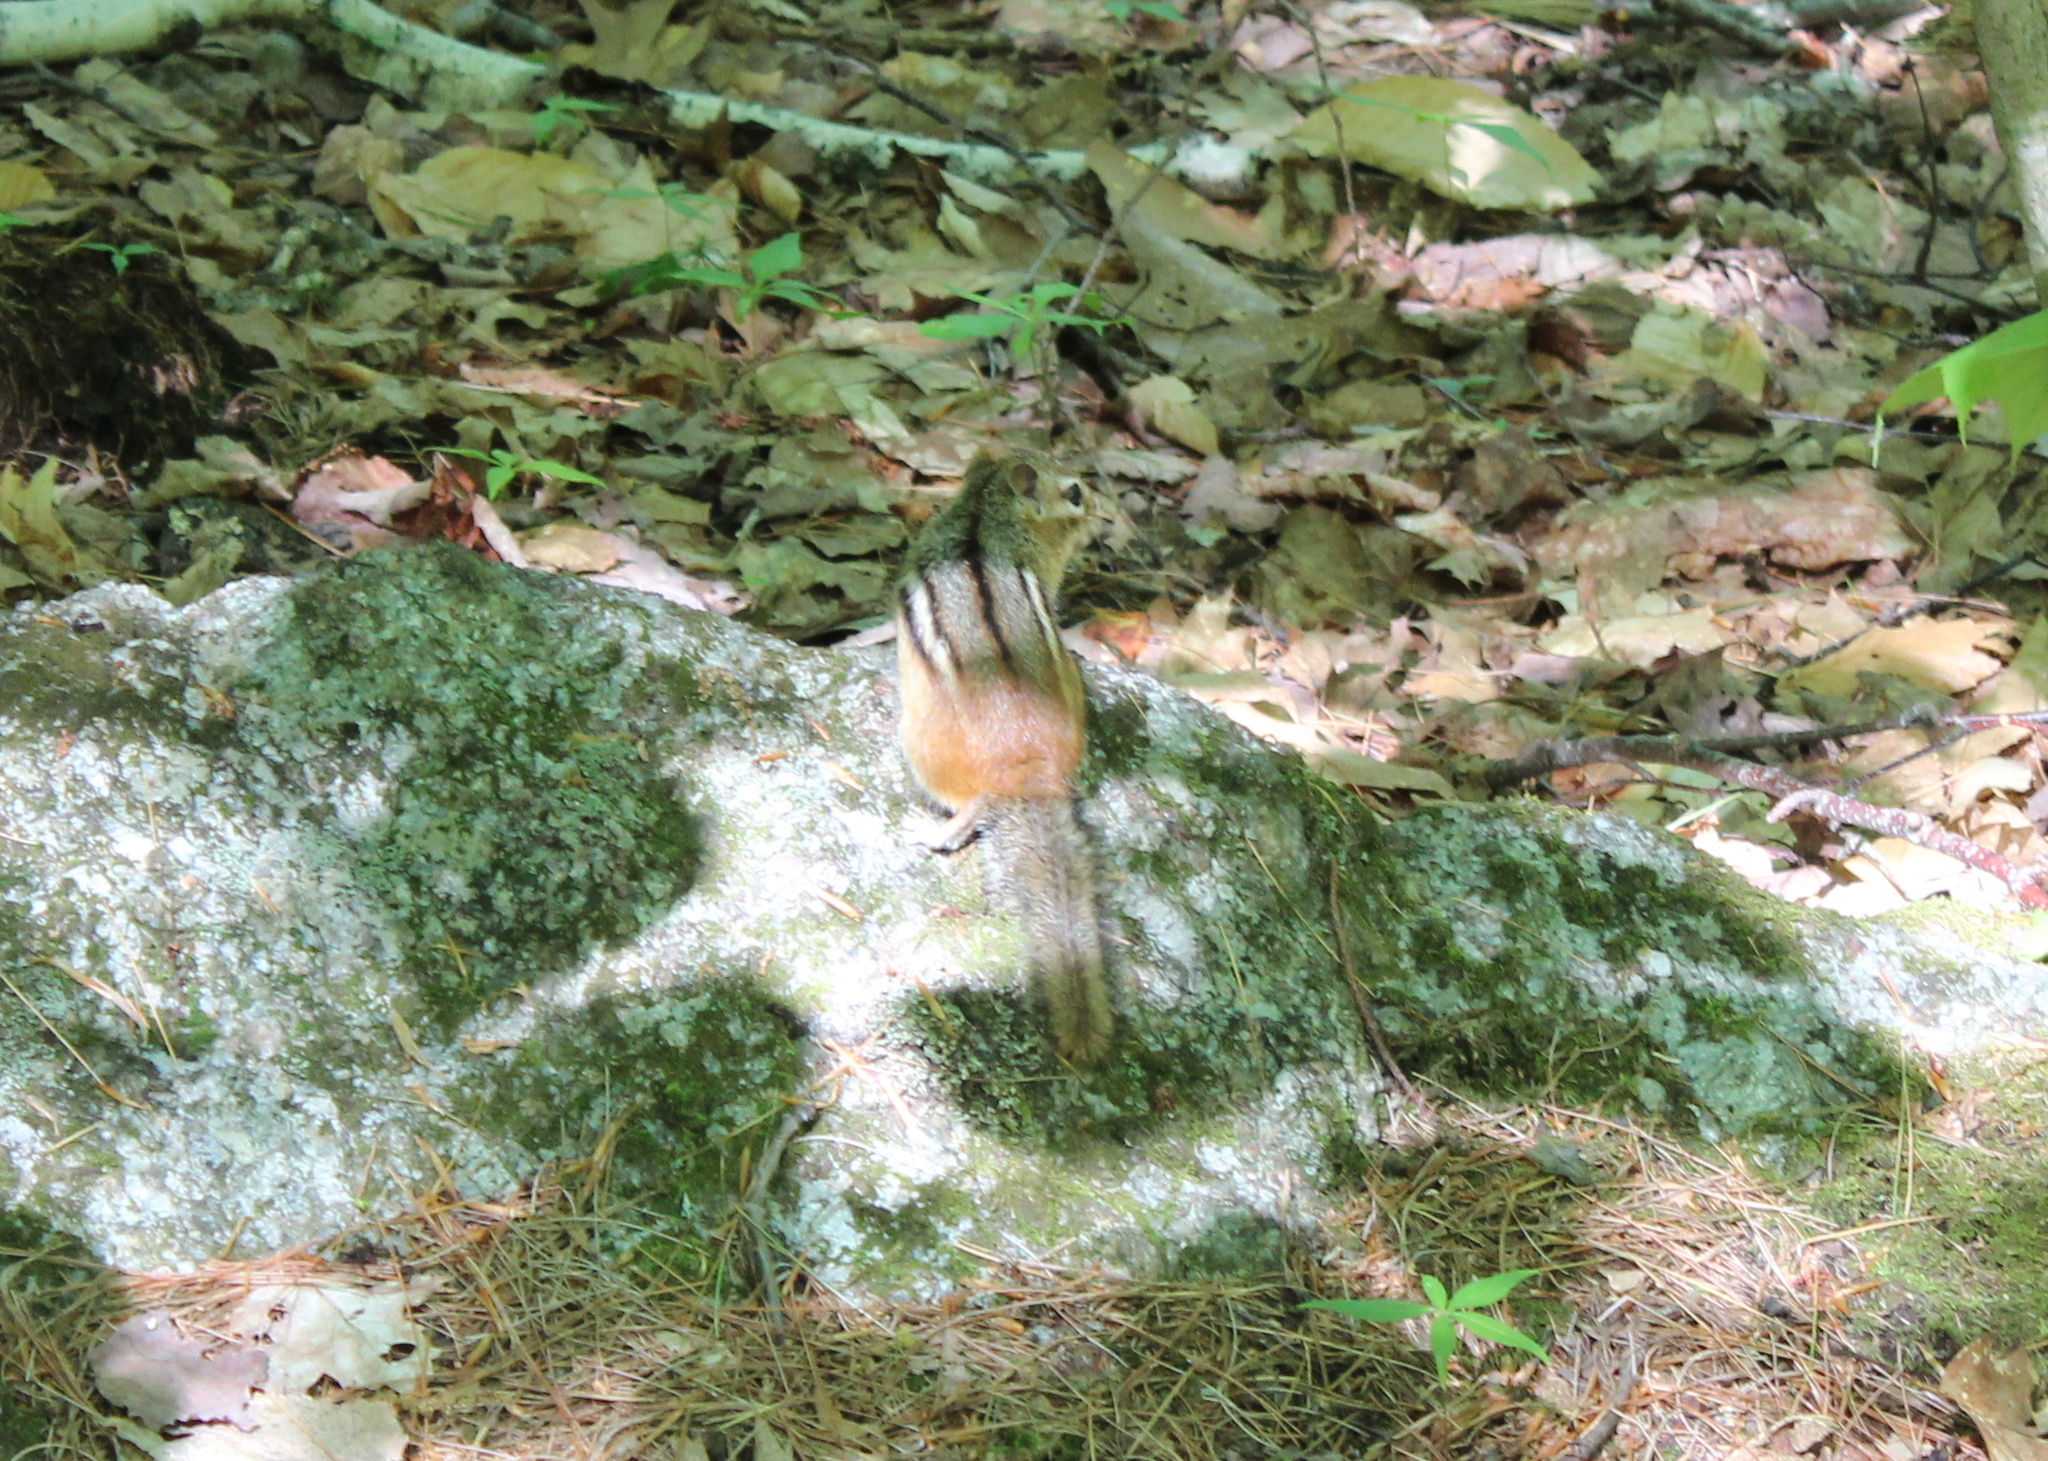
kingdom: Animalia
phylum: Chordata
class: Mammalia
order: Rodentia
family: Sciuridae
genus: Tamias
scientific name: Tamias striatus
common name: Eastern chipmunk
